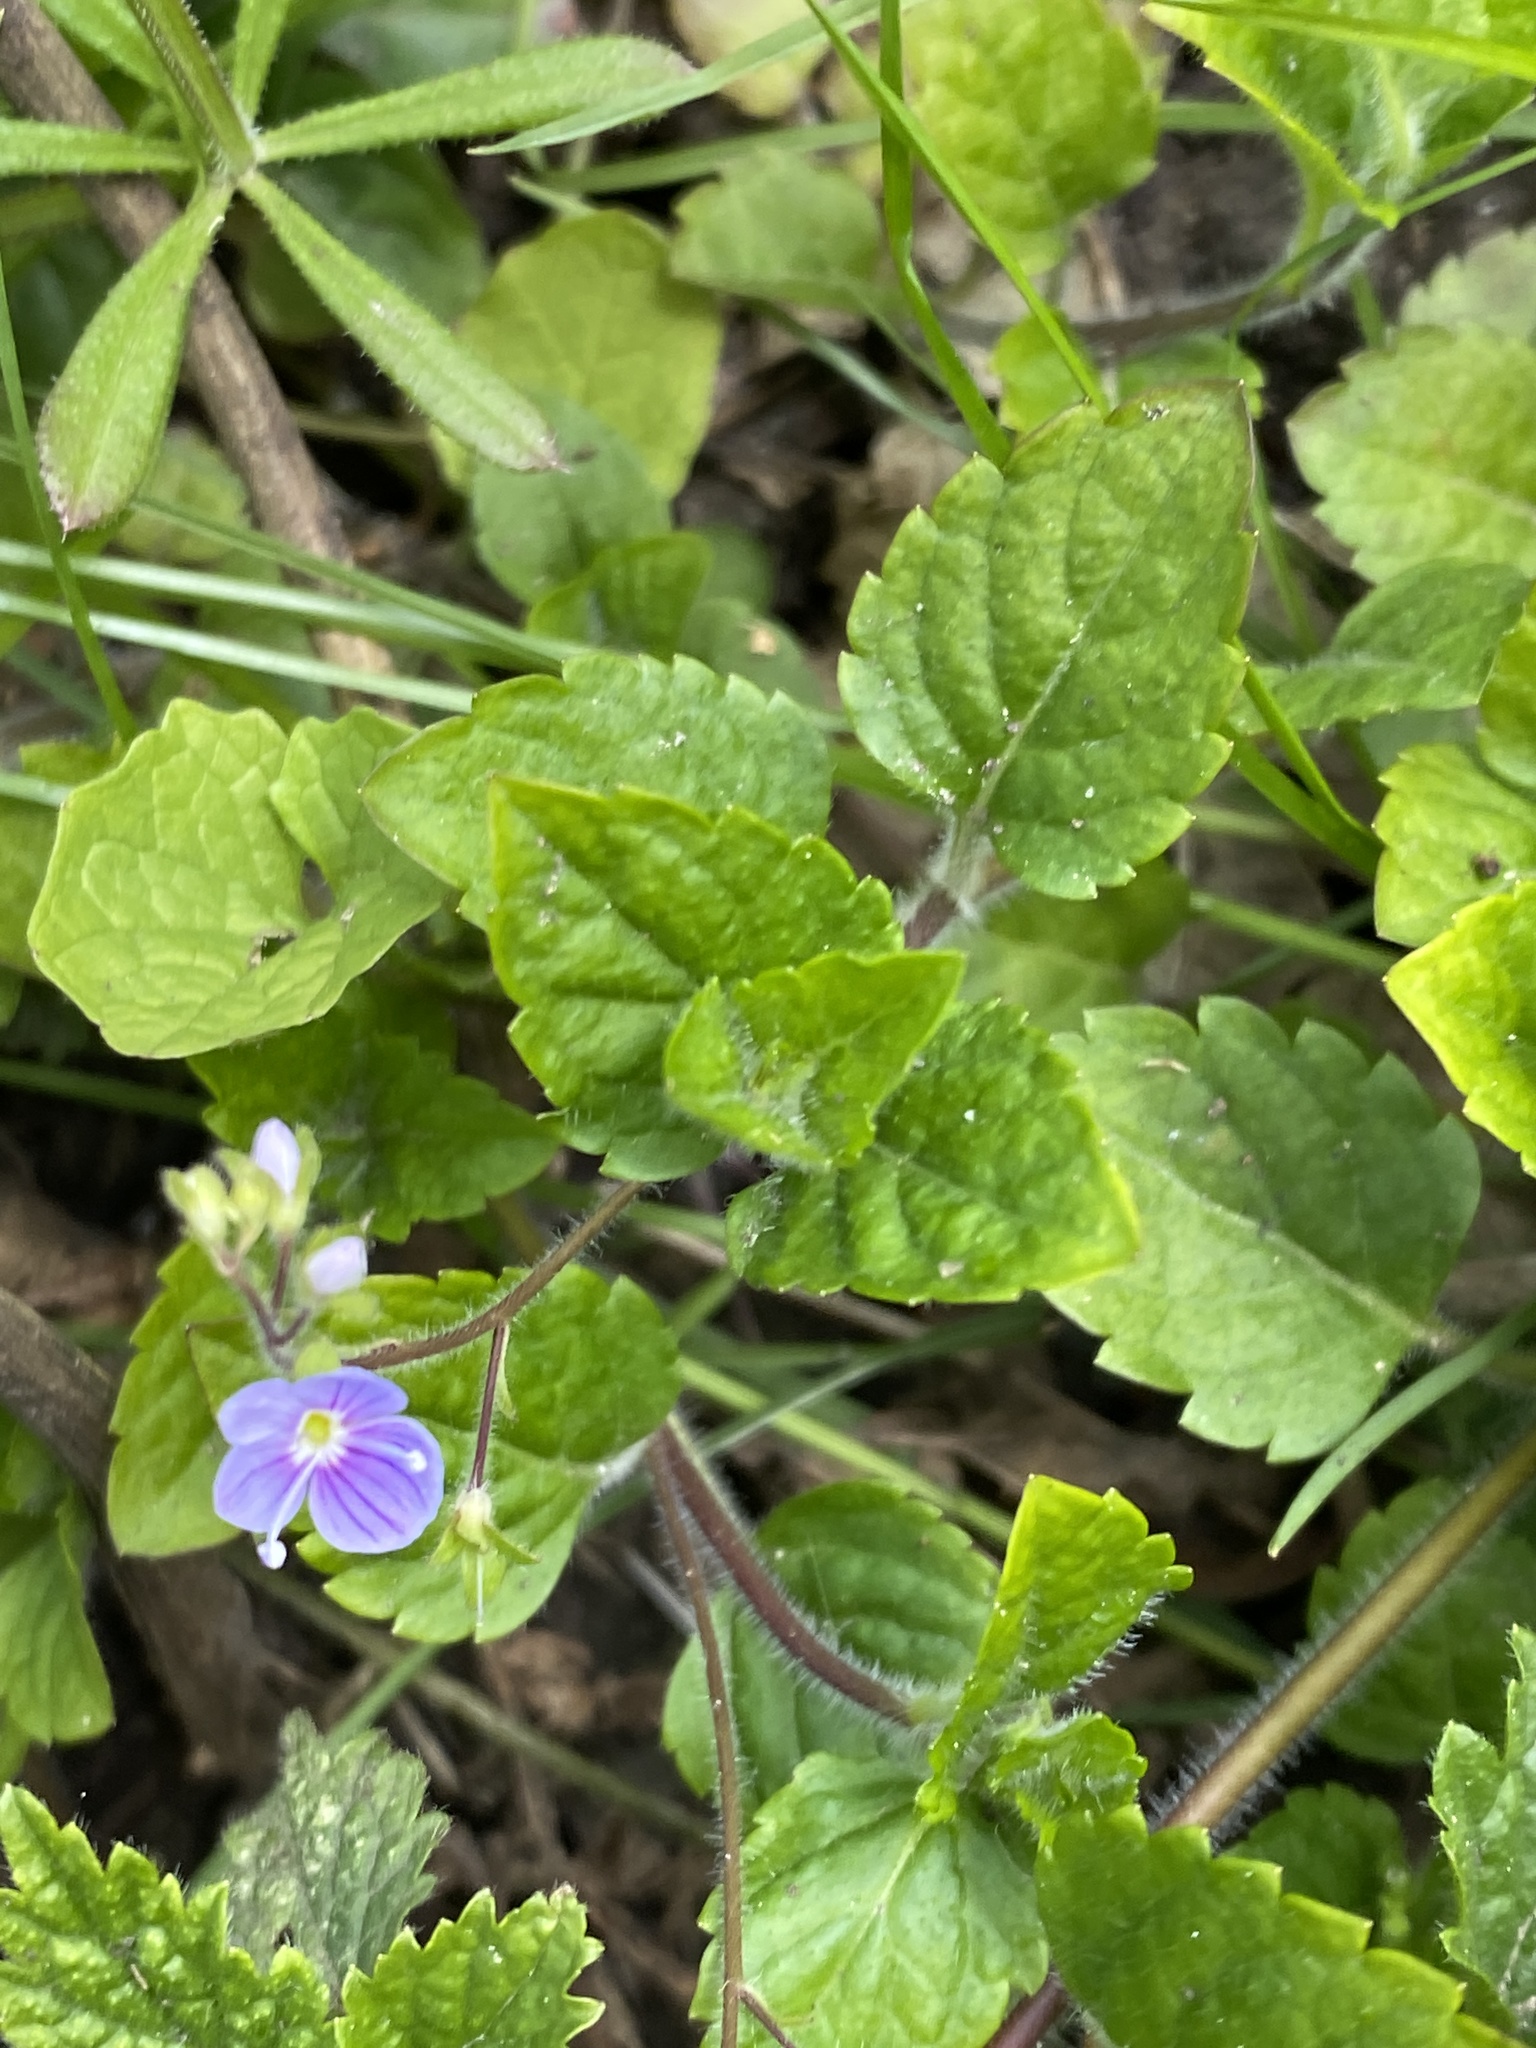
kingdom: Plantae
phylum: Tracheophyta
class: Magnoliopsida
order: Lamiales
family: Plantaginaceae
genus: Veronica
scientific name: Veronica montana
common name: Wood speedwell
